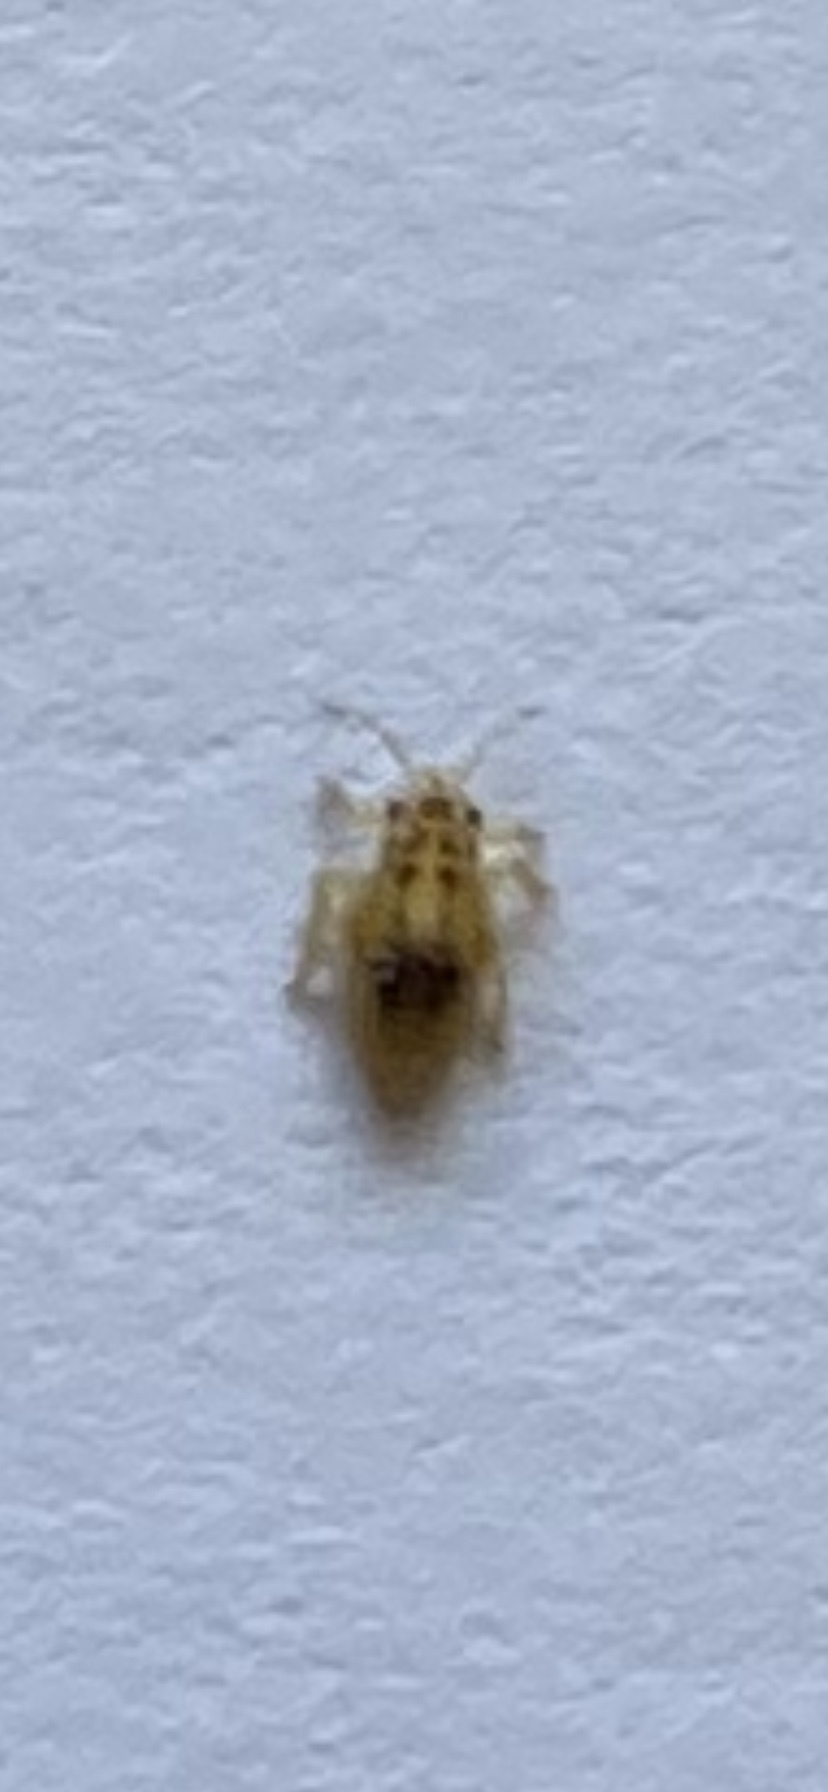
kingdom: Animalia
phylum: Arthropoda
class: Insecta
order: Hemiptera
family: Thaumastocoridae
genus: Thaumastocoris
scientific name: Thaumastocoris peregrinus
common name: Bronze bug
